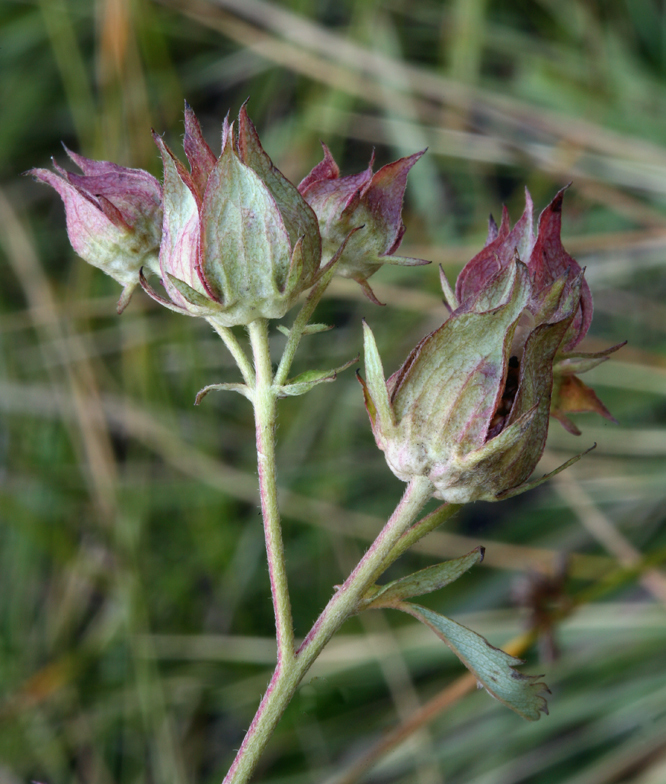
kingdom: Plantae
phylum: Tracheophyta
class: Magnoliopsida
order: Rosales
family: Rosaceae
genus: Comarum
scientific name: Comarum palustre
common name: Marsh cinquefoil
